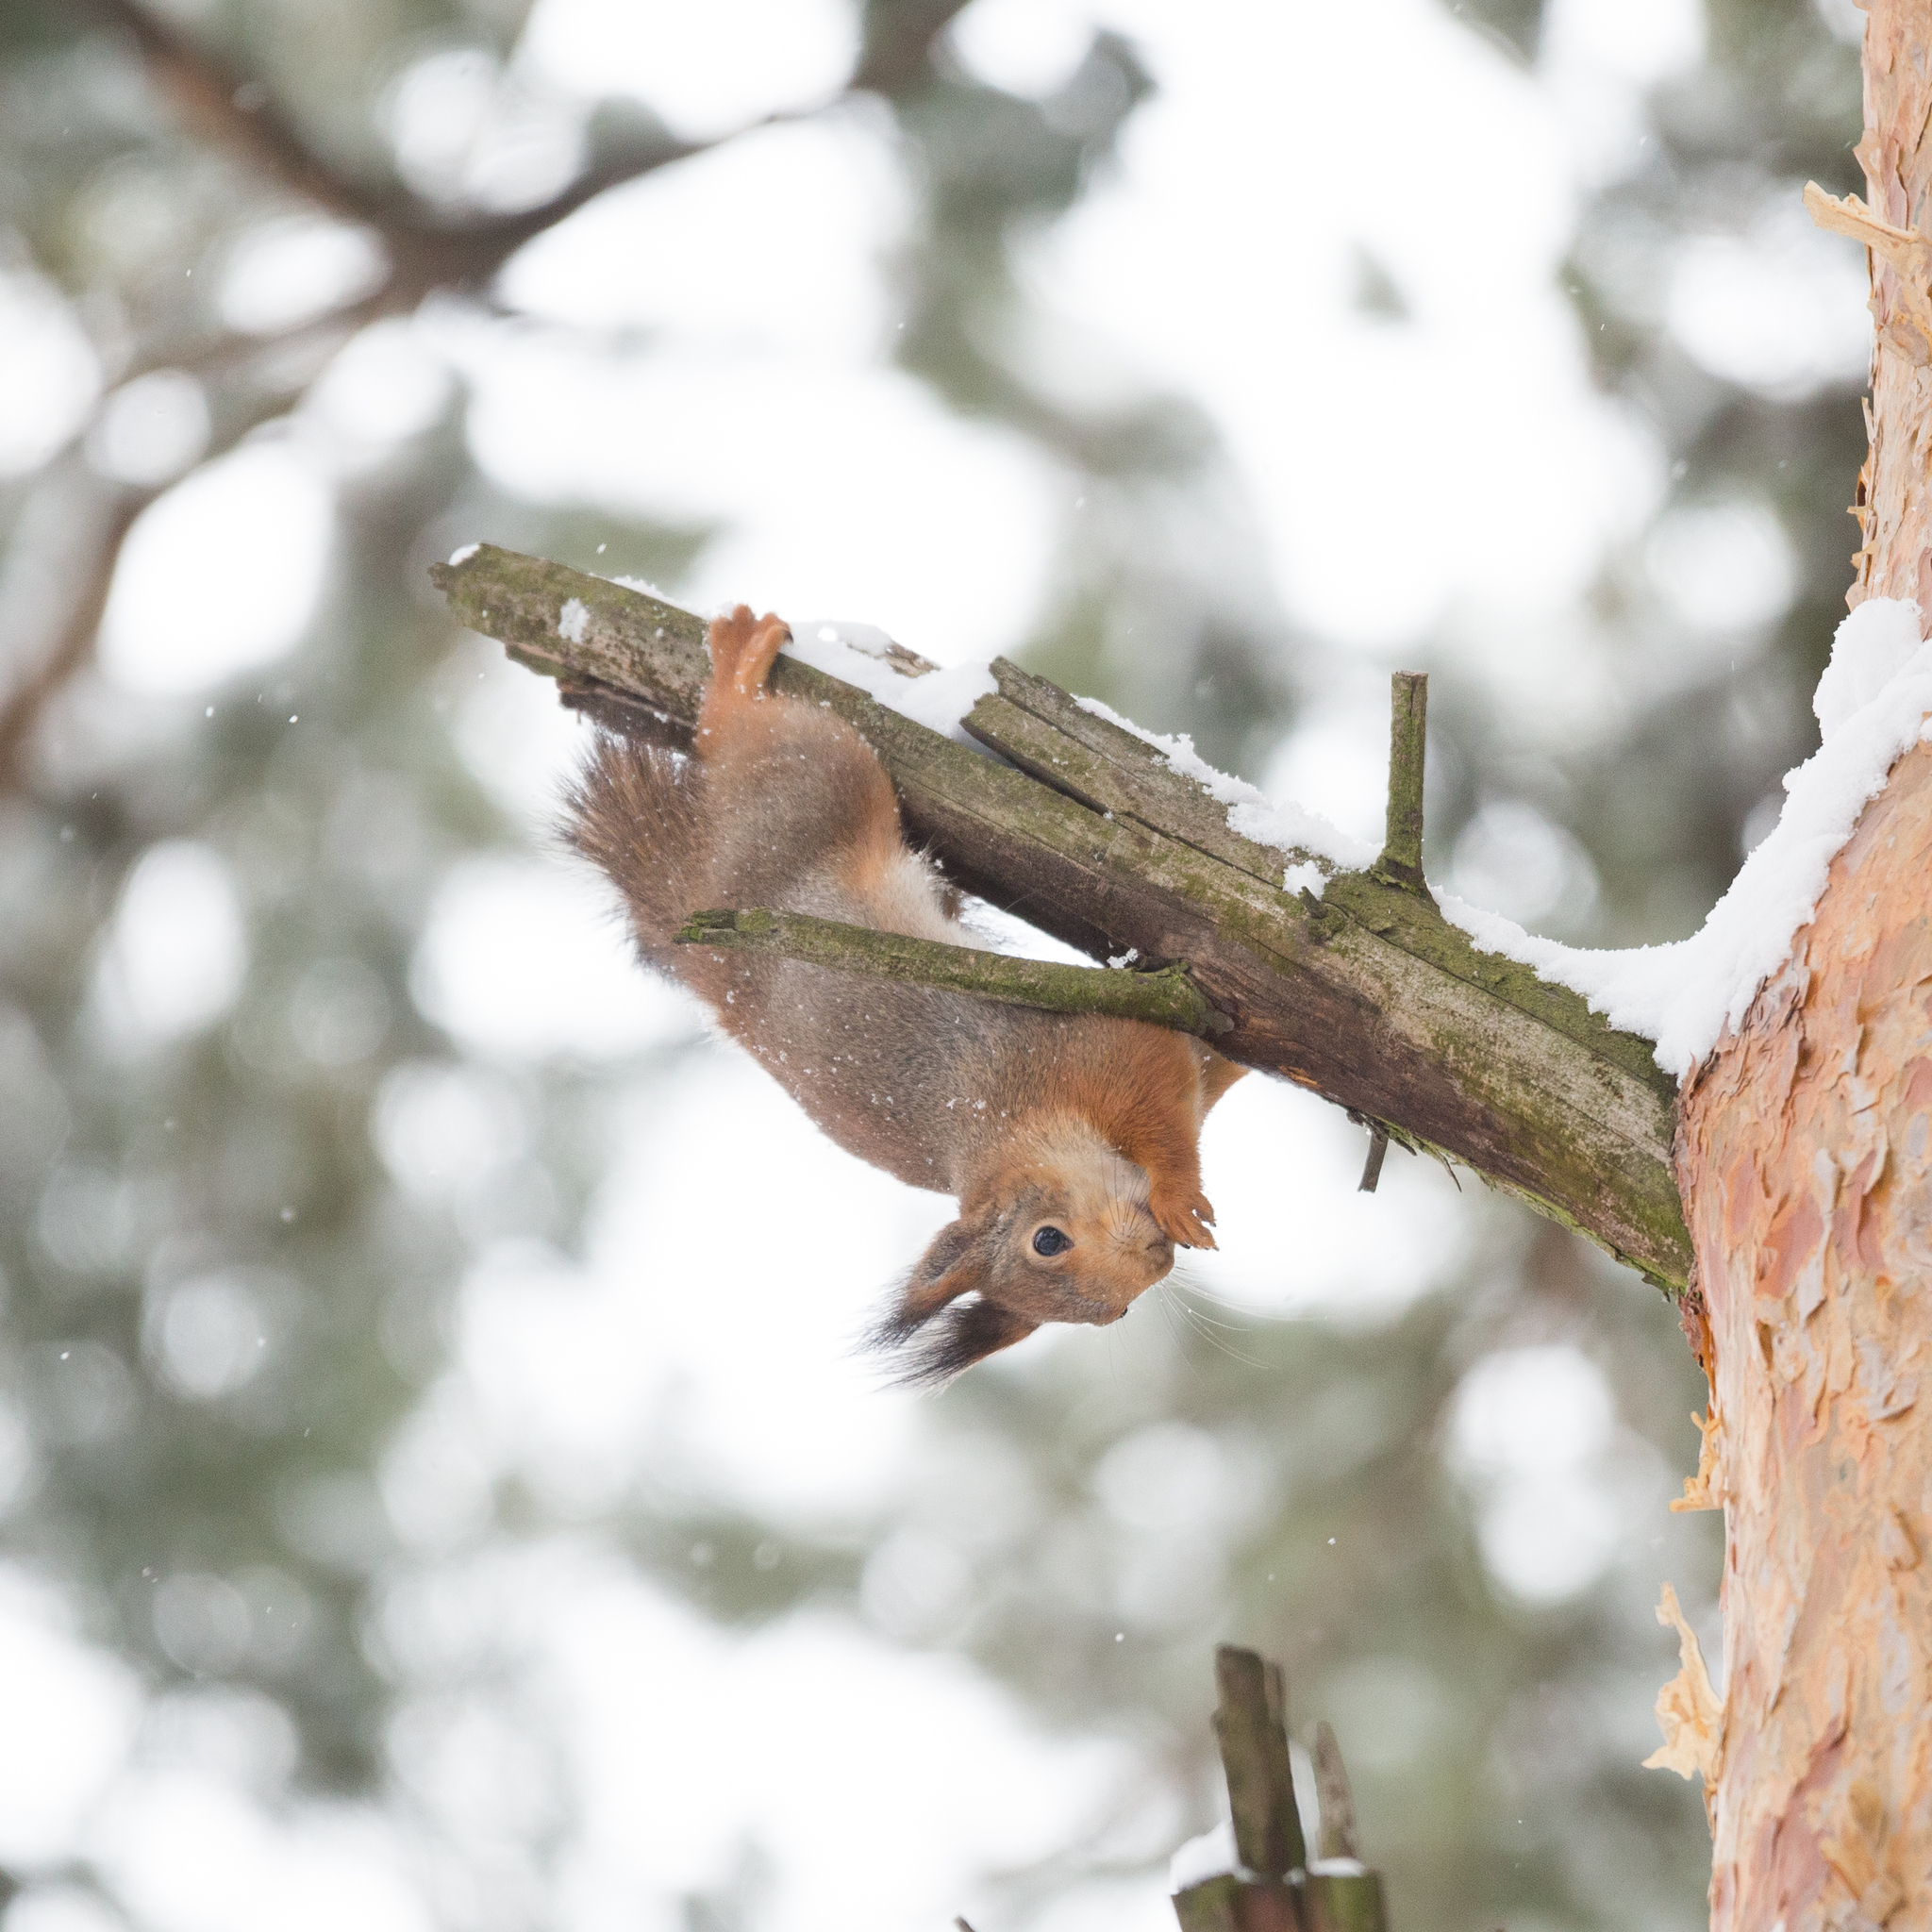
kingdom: Animalia
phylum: Chordata
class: Mammalia
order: Rodentia
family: Sciuridae
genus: Sciurus
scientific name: Sciurus vulgaris
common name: Eurasian red squirrel
